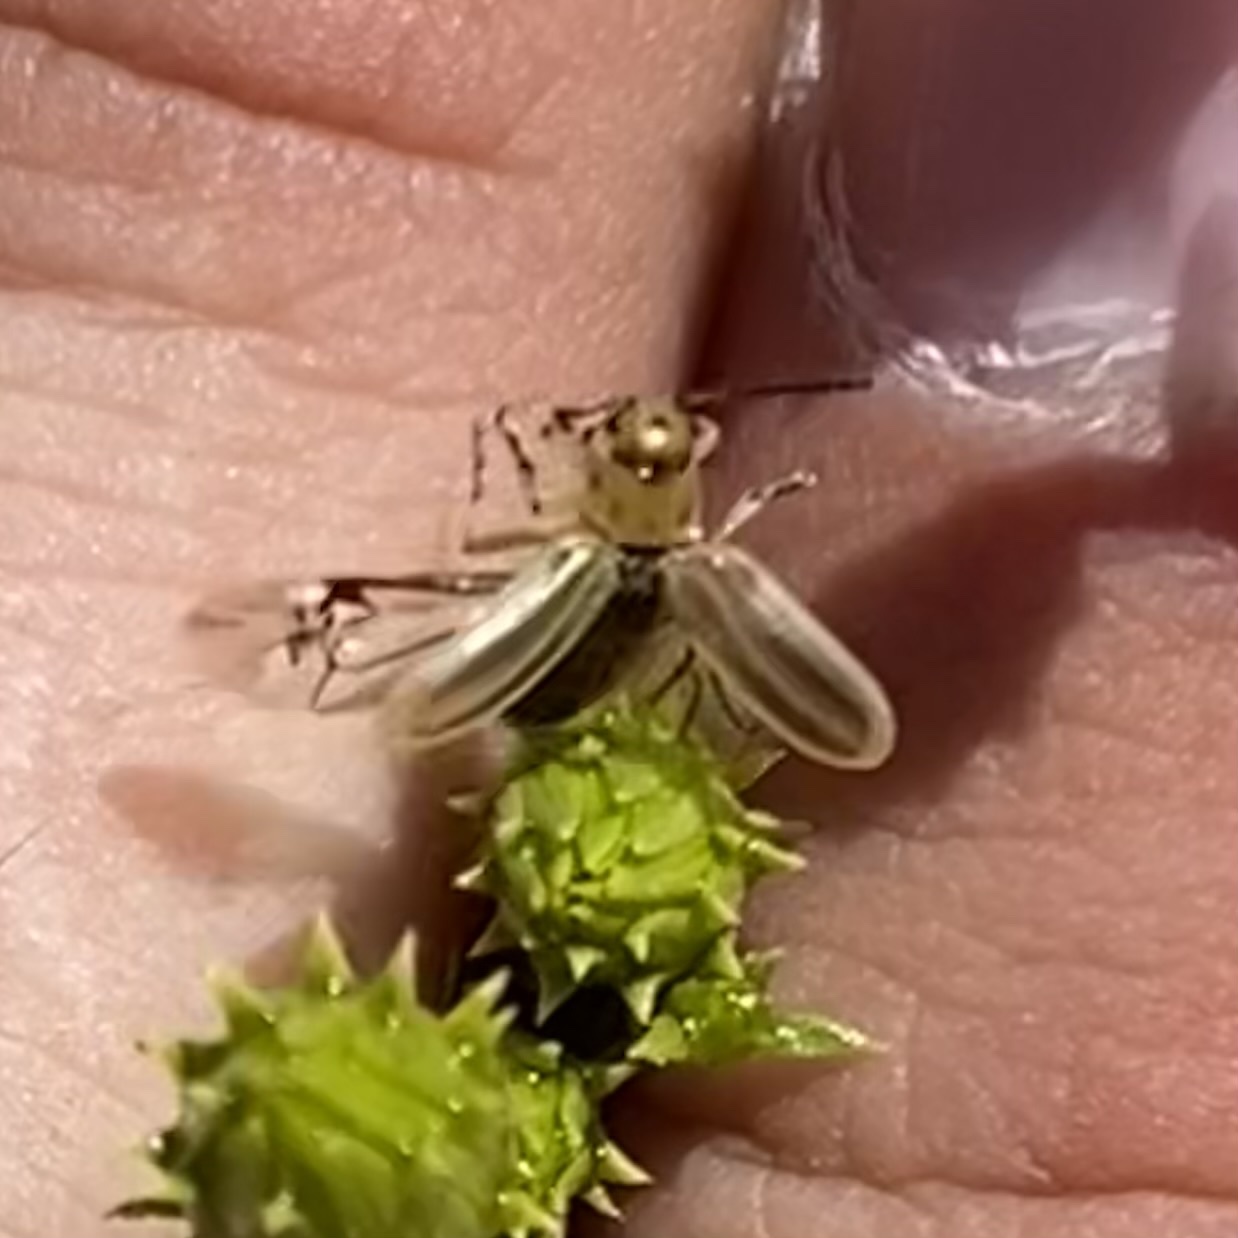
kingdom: Animalia
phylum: Arthropoda
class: Insecta
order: Coleoptera
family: Chrysomelidae
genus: Diorhabda
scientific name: Diorhabda
